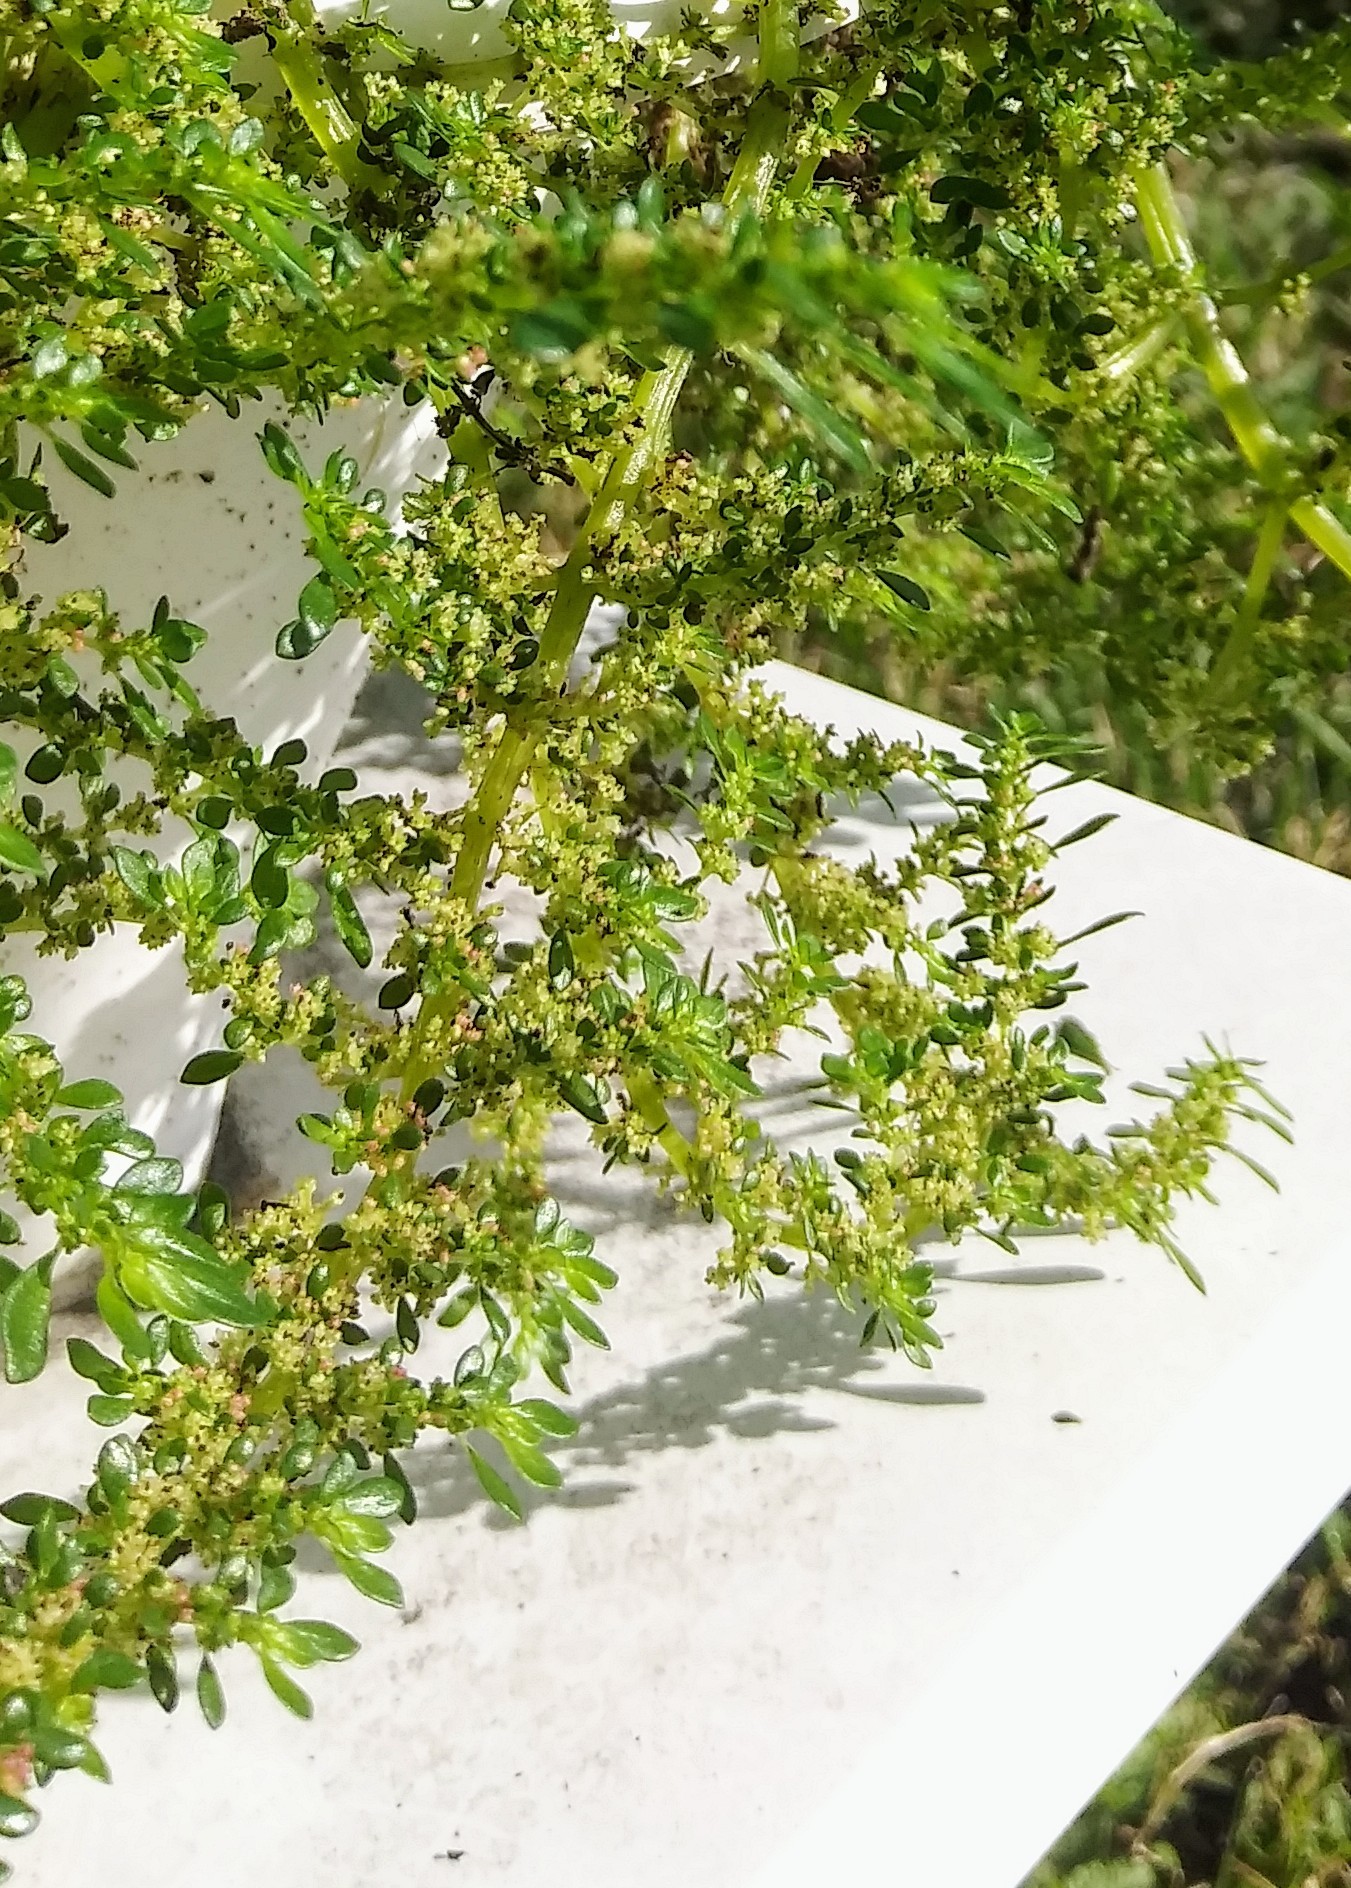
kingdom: Plantae
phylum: Tracheophyta
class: Magnoliopsida
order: Rosales
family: Urticaceae
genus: Pilea
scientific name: Pilea microphylla
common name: Artillery-plant
